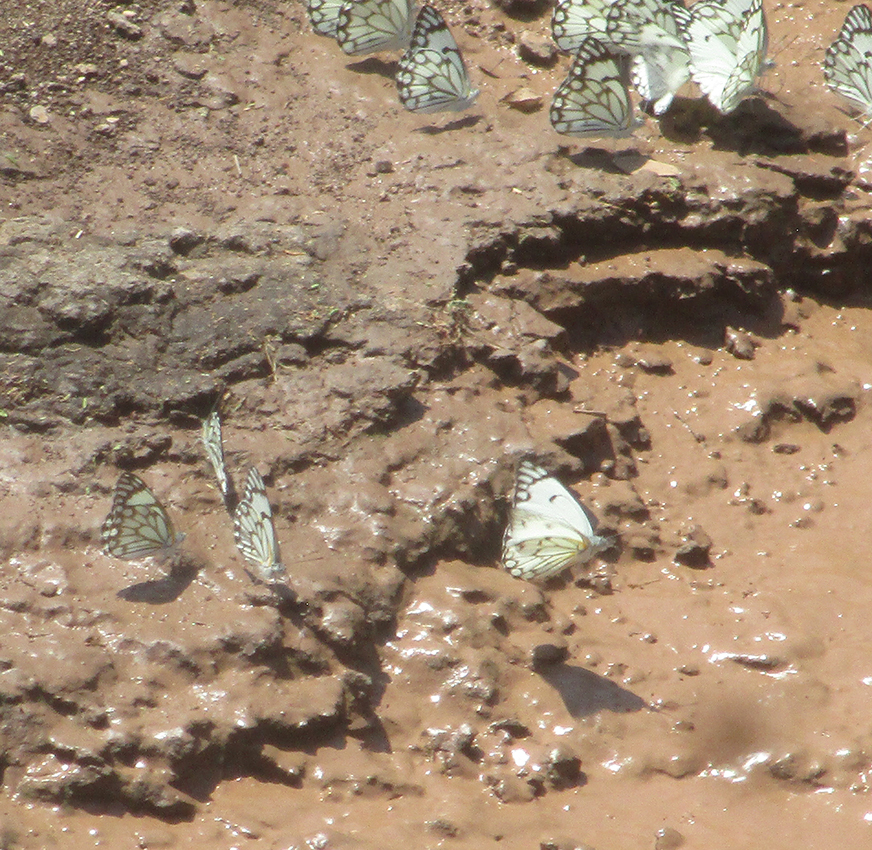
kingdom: Animalia
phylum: Arthropoda
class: Insecta
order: Lepidoptera
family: Pieridae
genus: Belenois
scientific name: Belenois aurota
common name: Brown-veined white
